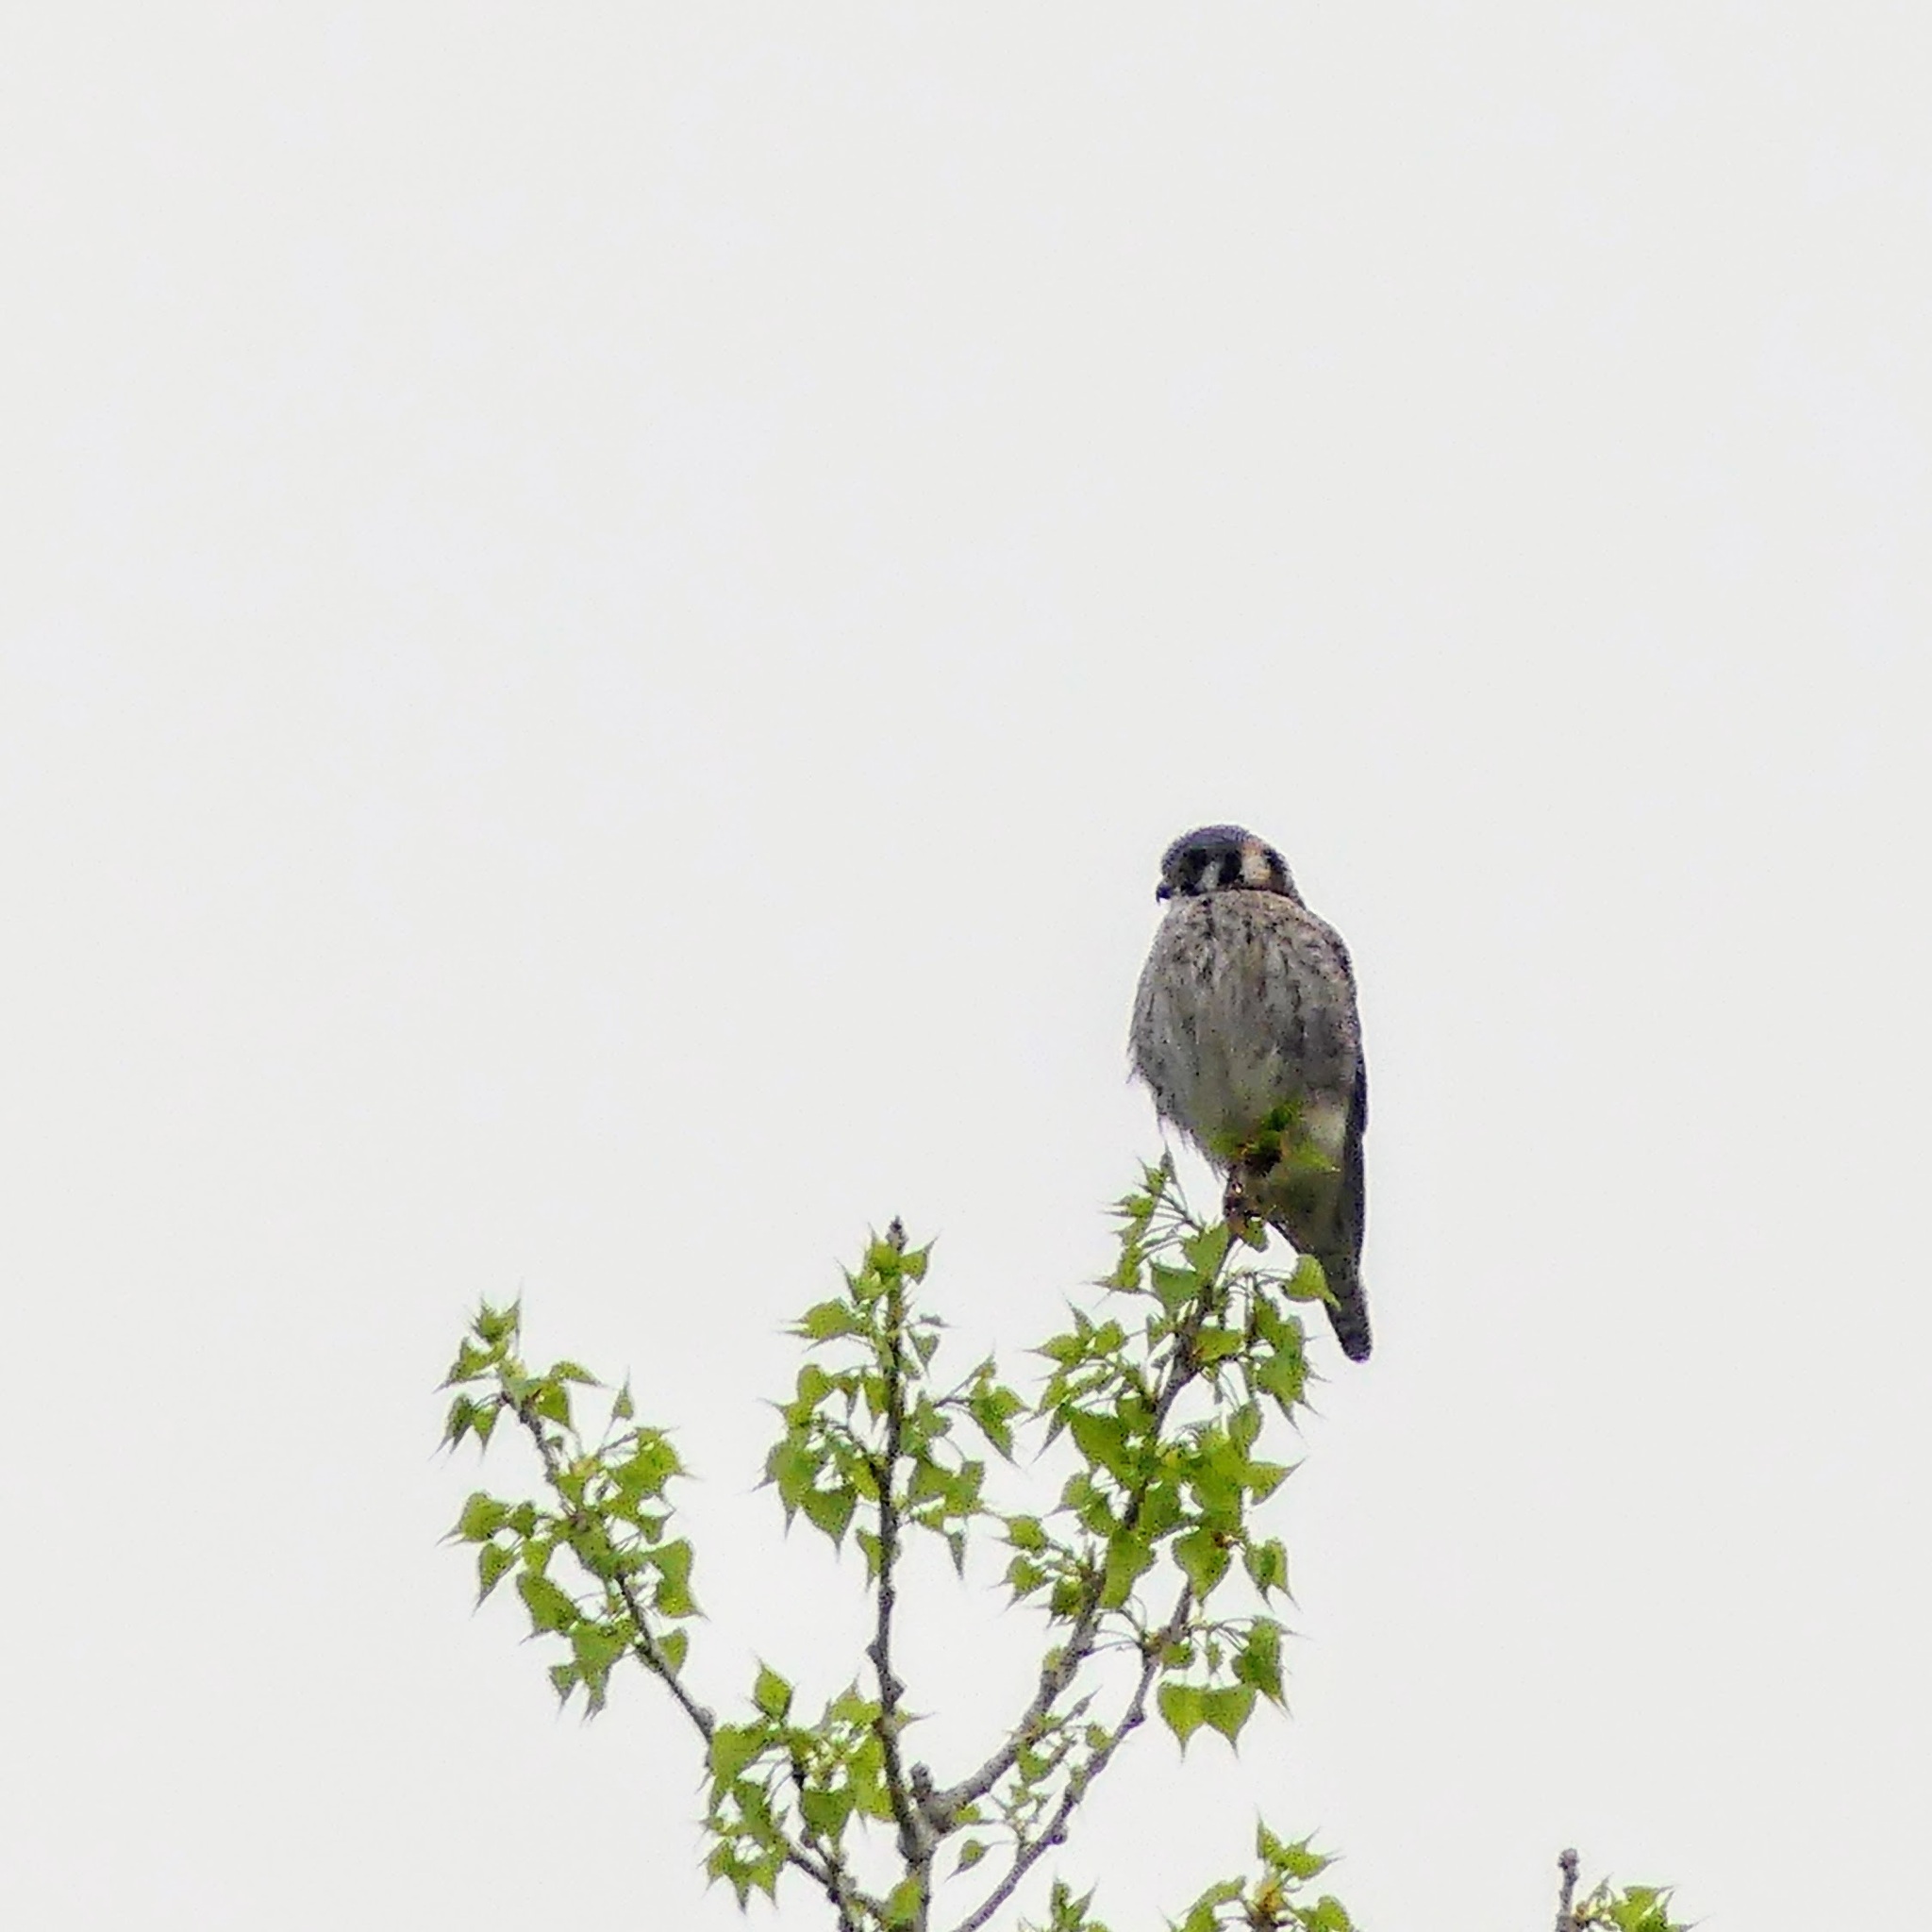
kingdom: Animalia
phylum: Chordata
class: Aves
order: Falconiformes
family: Falconidae
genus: Falco
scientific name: Falco sparverius
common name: American kestrel
